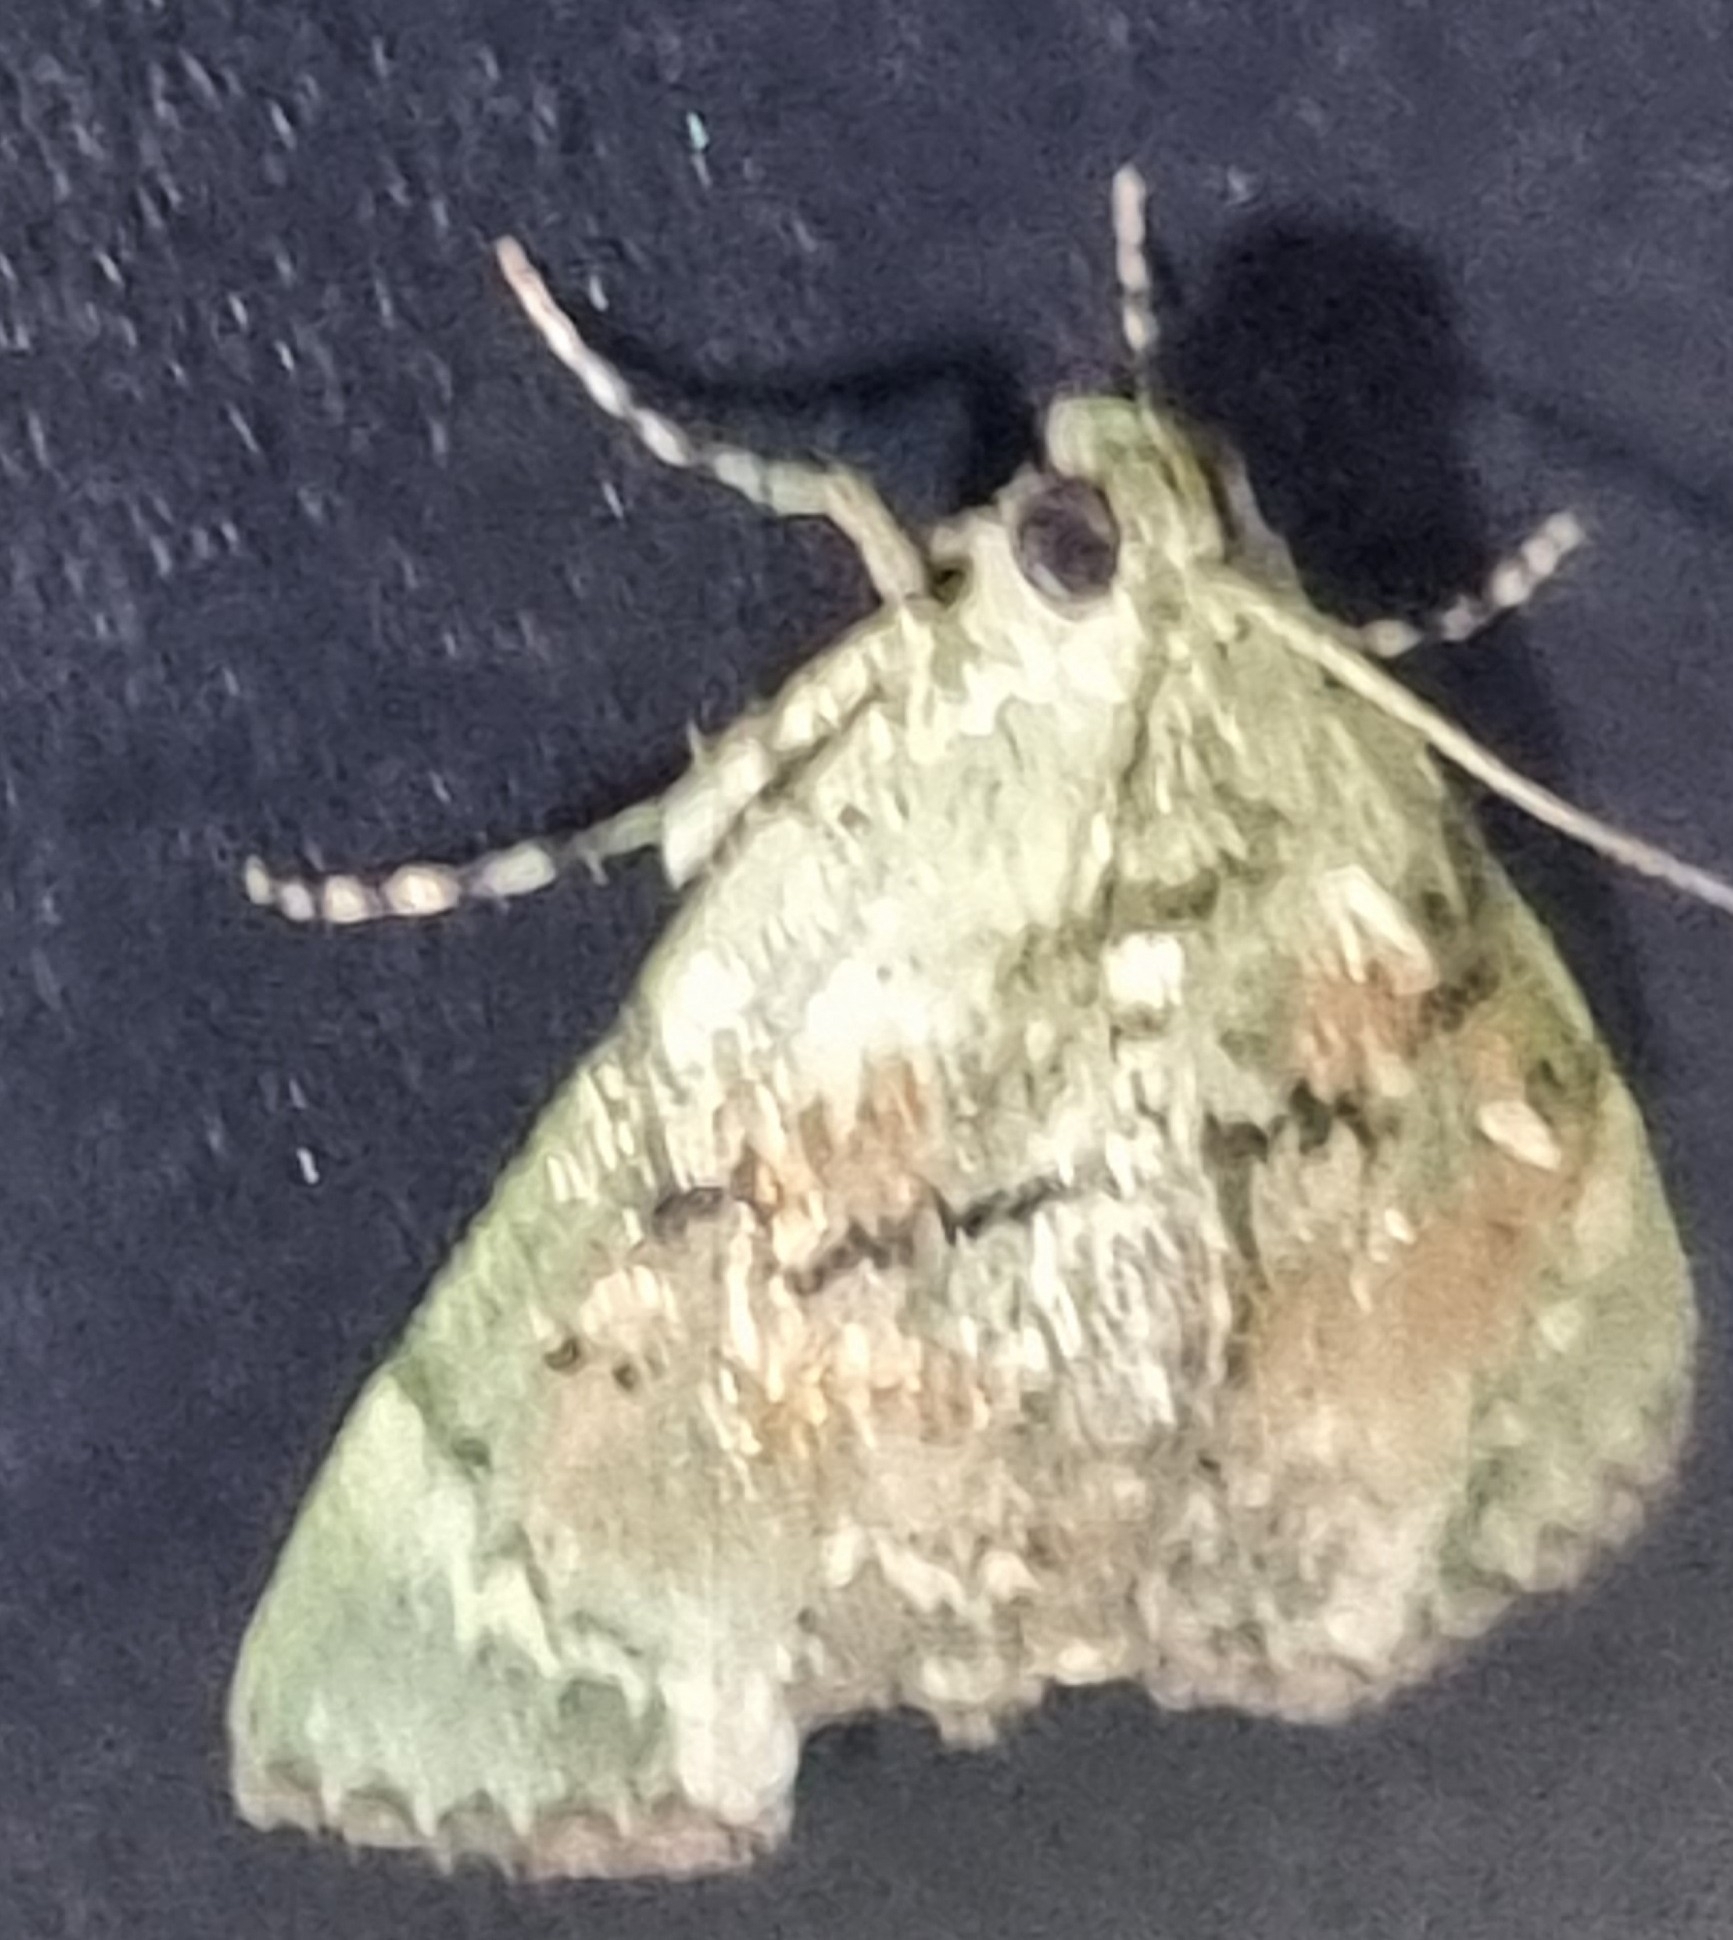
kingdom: Animalia
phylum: Arthropoda
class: Insecta
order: Lepidoptera
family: Pyralidae
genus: Stericta
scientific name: Stericta bryomima
